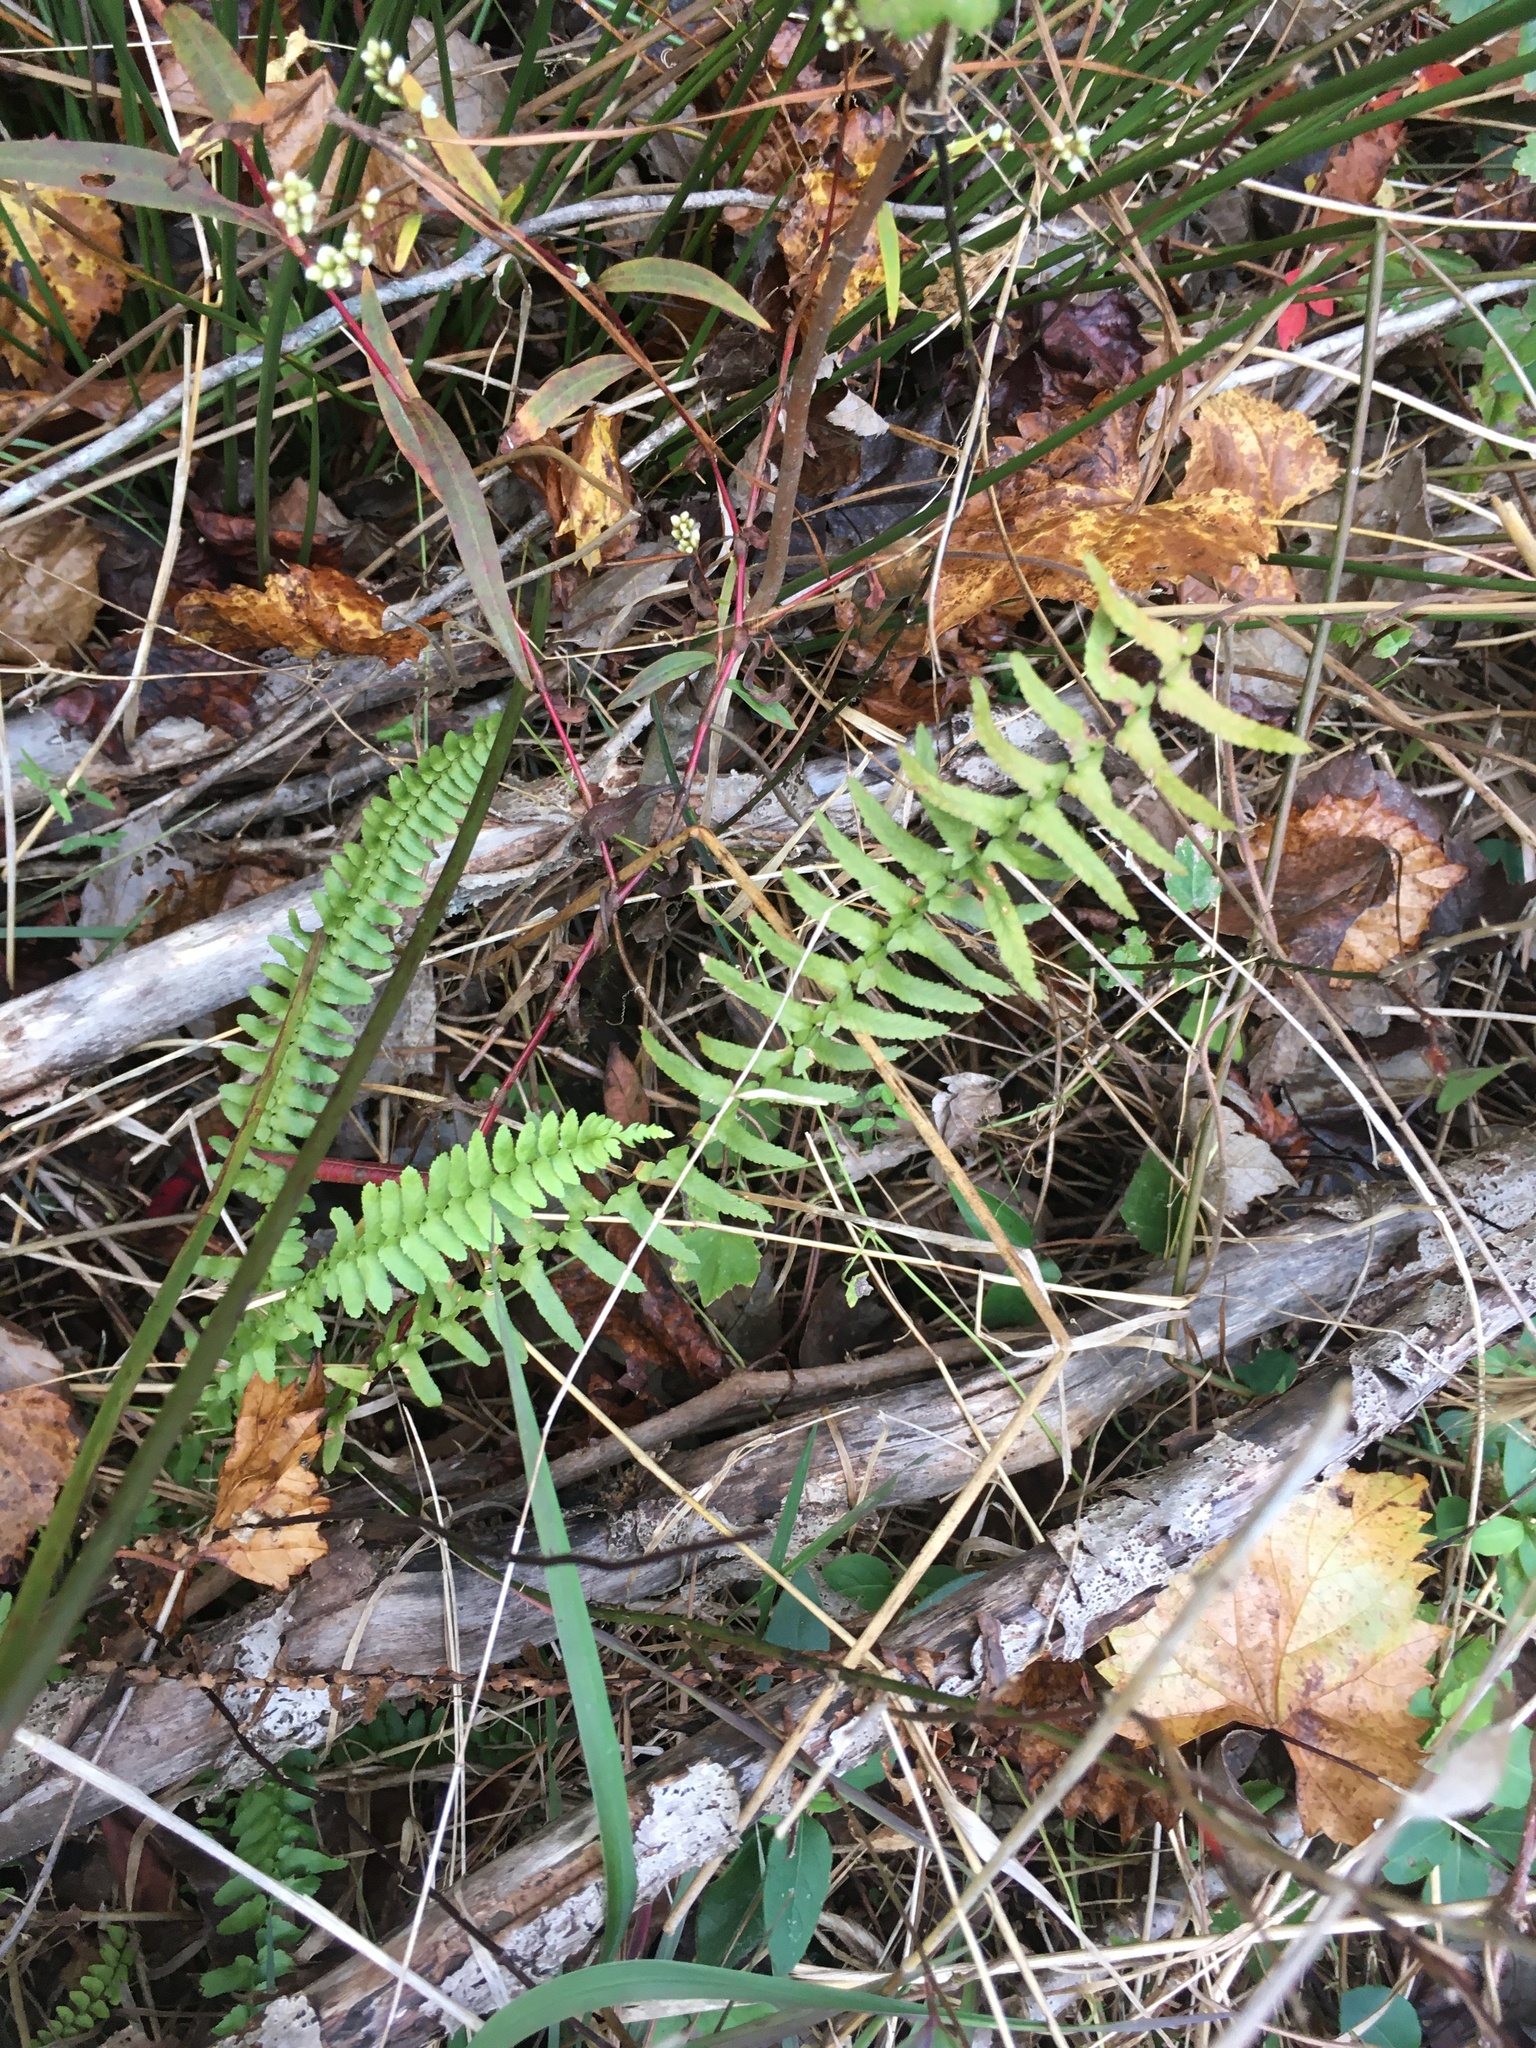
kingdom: Plantae
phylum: Tracheophyta
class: Polypodiopsida
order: Polypodiales
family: Aspleniaceae
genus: Asplenium
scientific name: Asplenium platyneuron
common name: Ebony spleenwort
